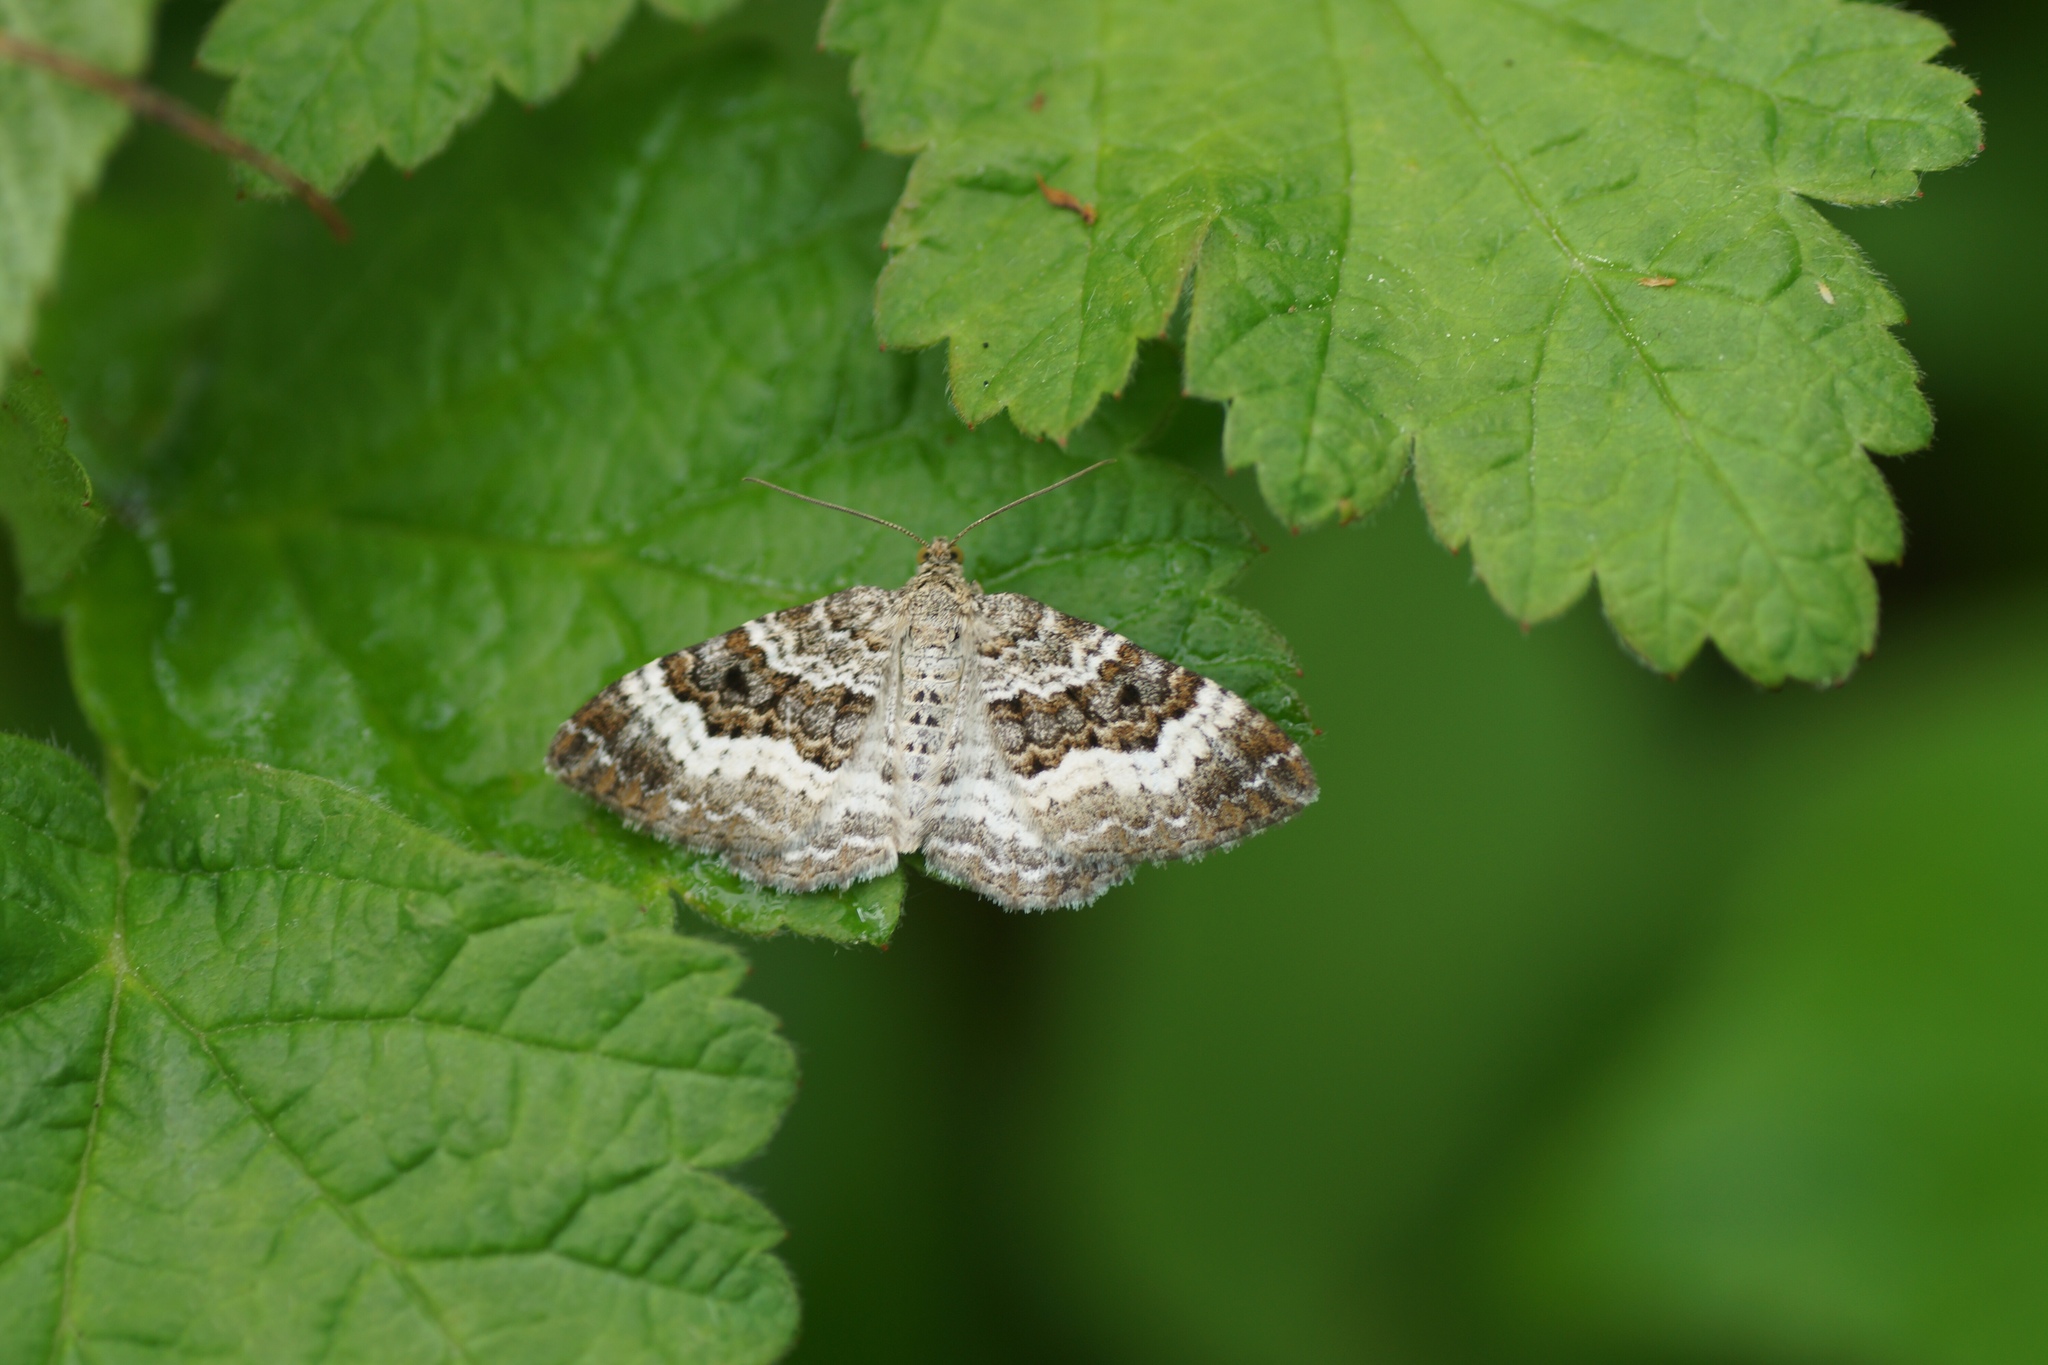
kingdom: Animalia
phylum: Arthropoda
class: Insecta
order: Lepidoptera
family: Geometridae
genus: Epirrhoe
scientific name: Epirrhoe alternata
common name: Common carpet
